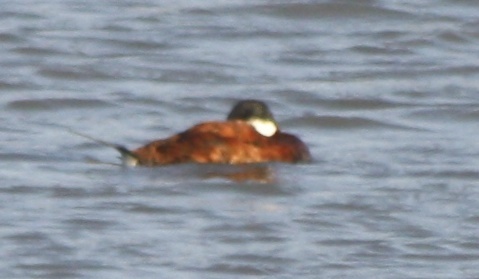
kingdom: Animalia
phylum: Chordata
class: Aves
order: Anseriformes
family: Anatidae
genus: Oxyura
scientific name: Oxyura jamaicensis
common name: Ruddy duck
